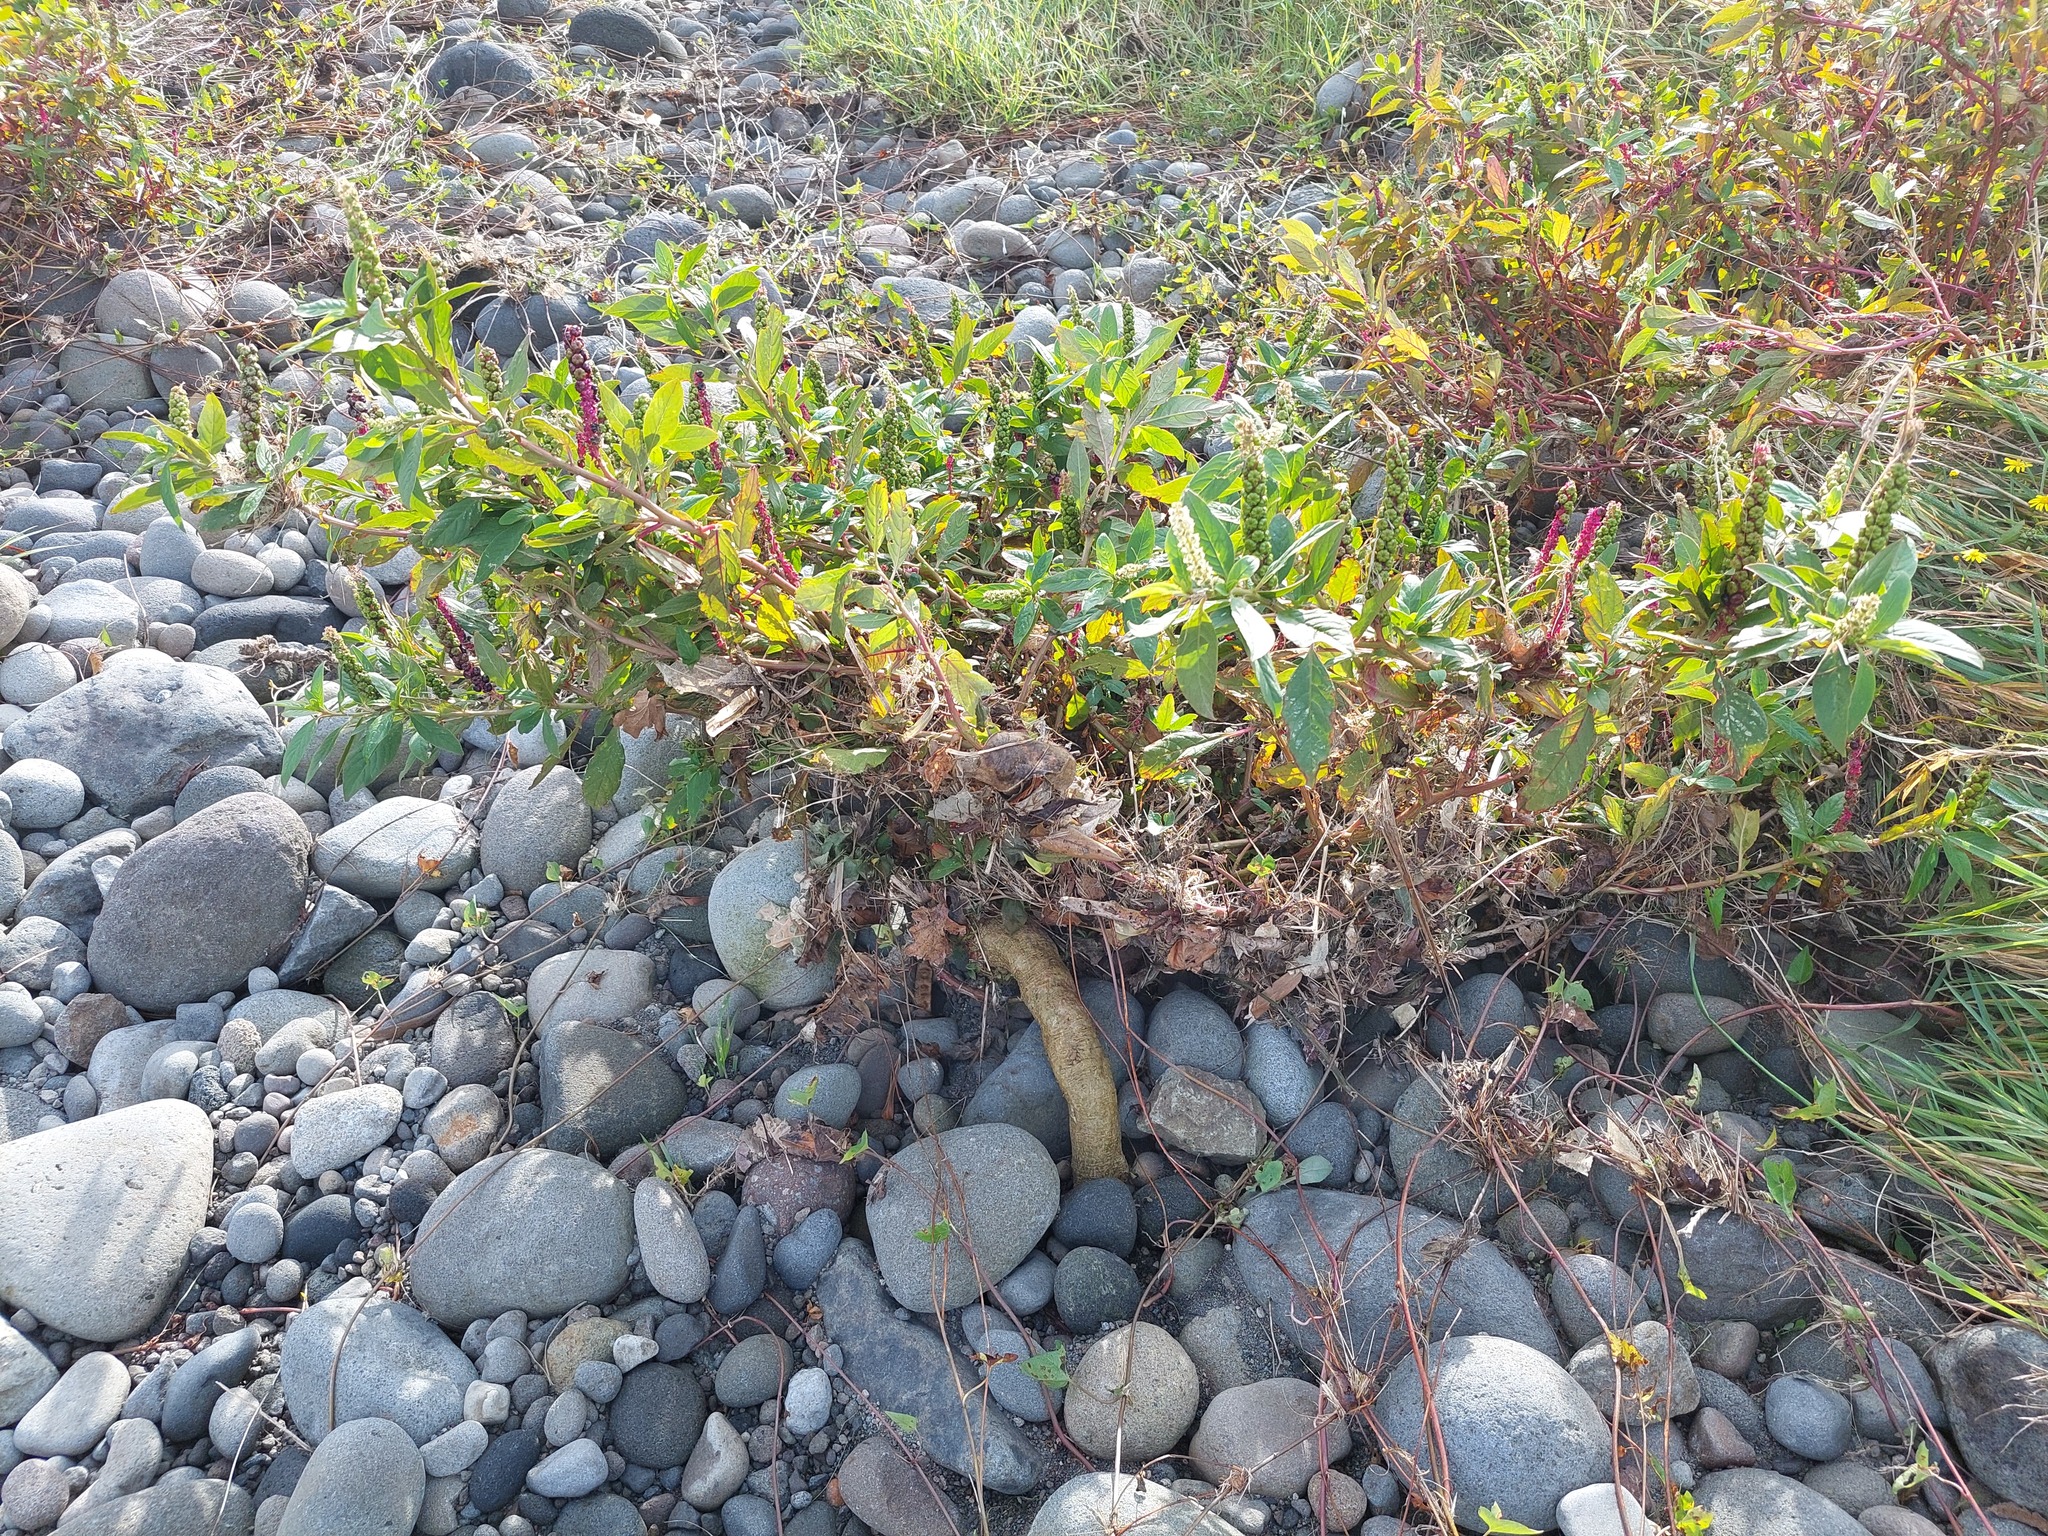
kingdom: Plantae
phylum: Tracheophyta
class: Magnoliopsida
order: Caryophyllales
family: Phytolaccaceae
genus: Phytolacca
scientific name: Phytolacca icosandra
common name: Button pokeweed
